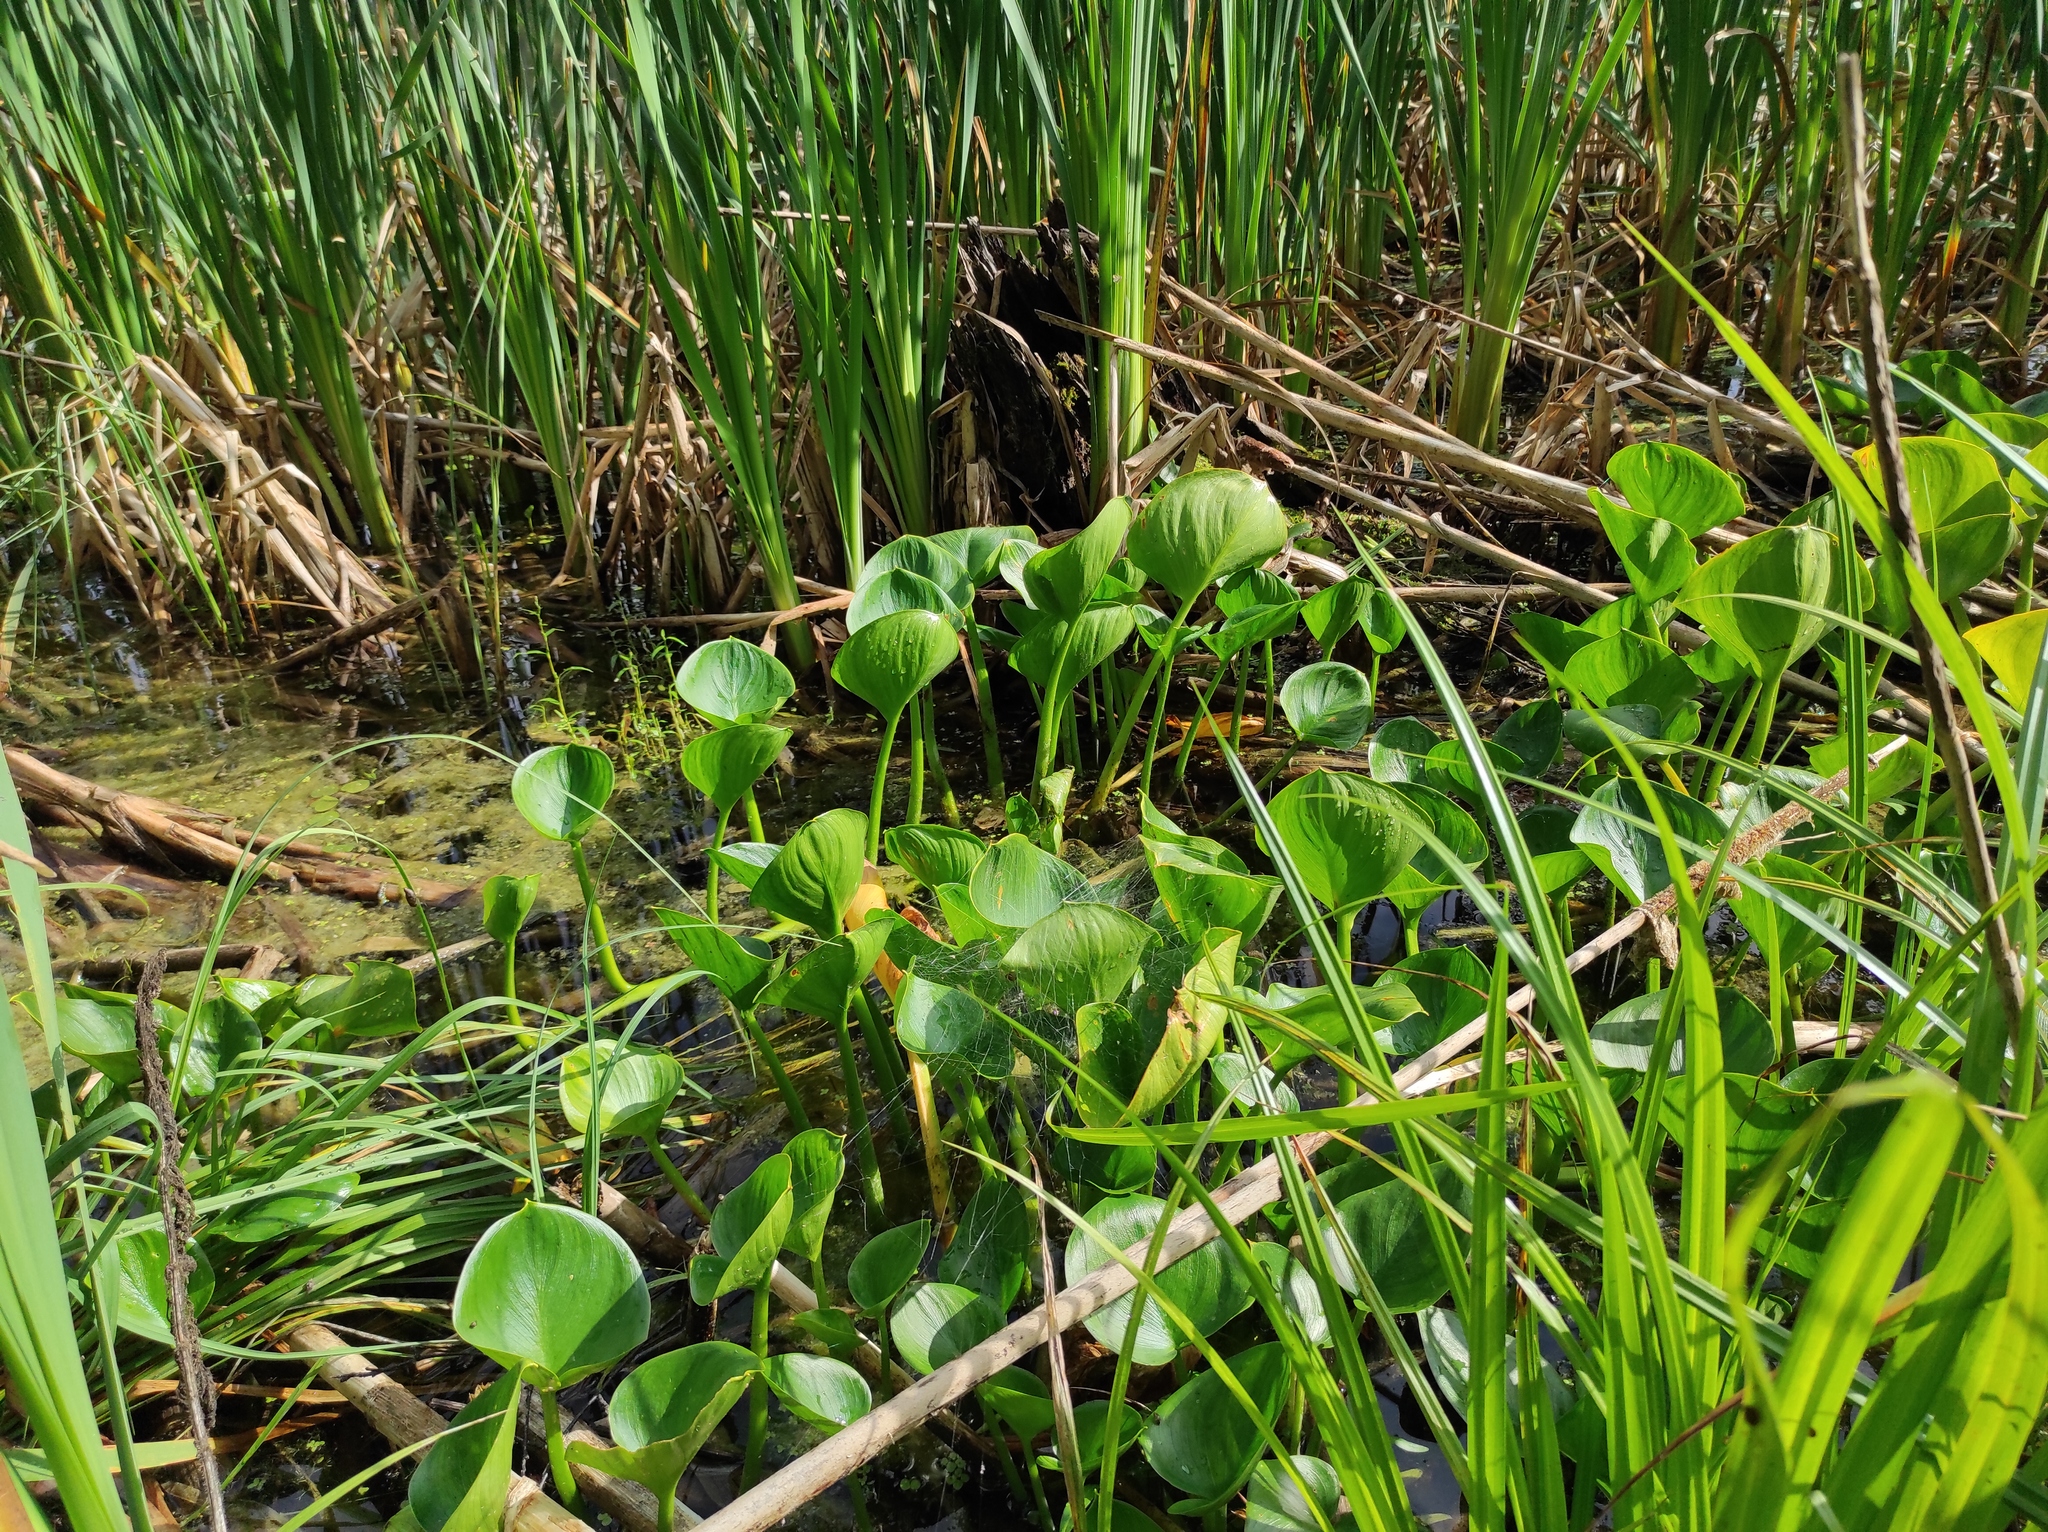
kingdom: Plantae
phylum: Tracheophyta
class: Liliopsida
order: Alismatales
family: Araceae
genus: Calla
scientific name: Calla palustris
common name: Bog arum
